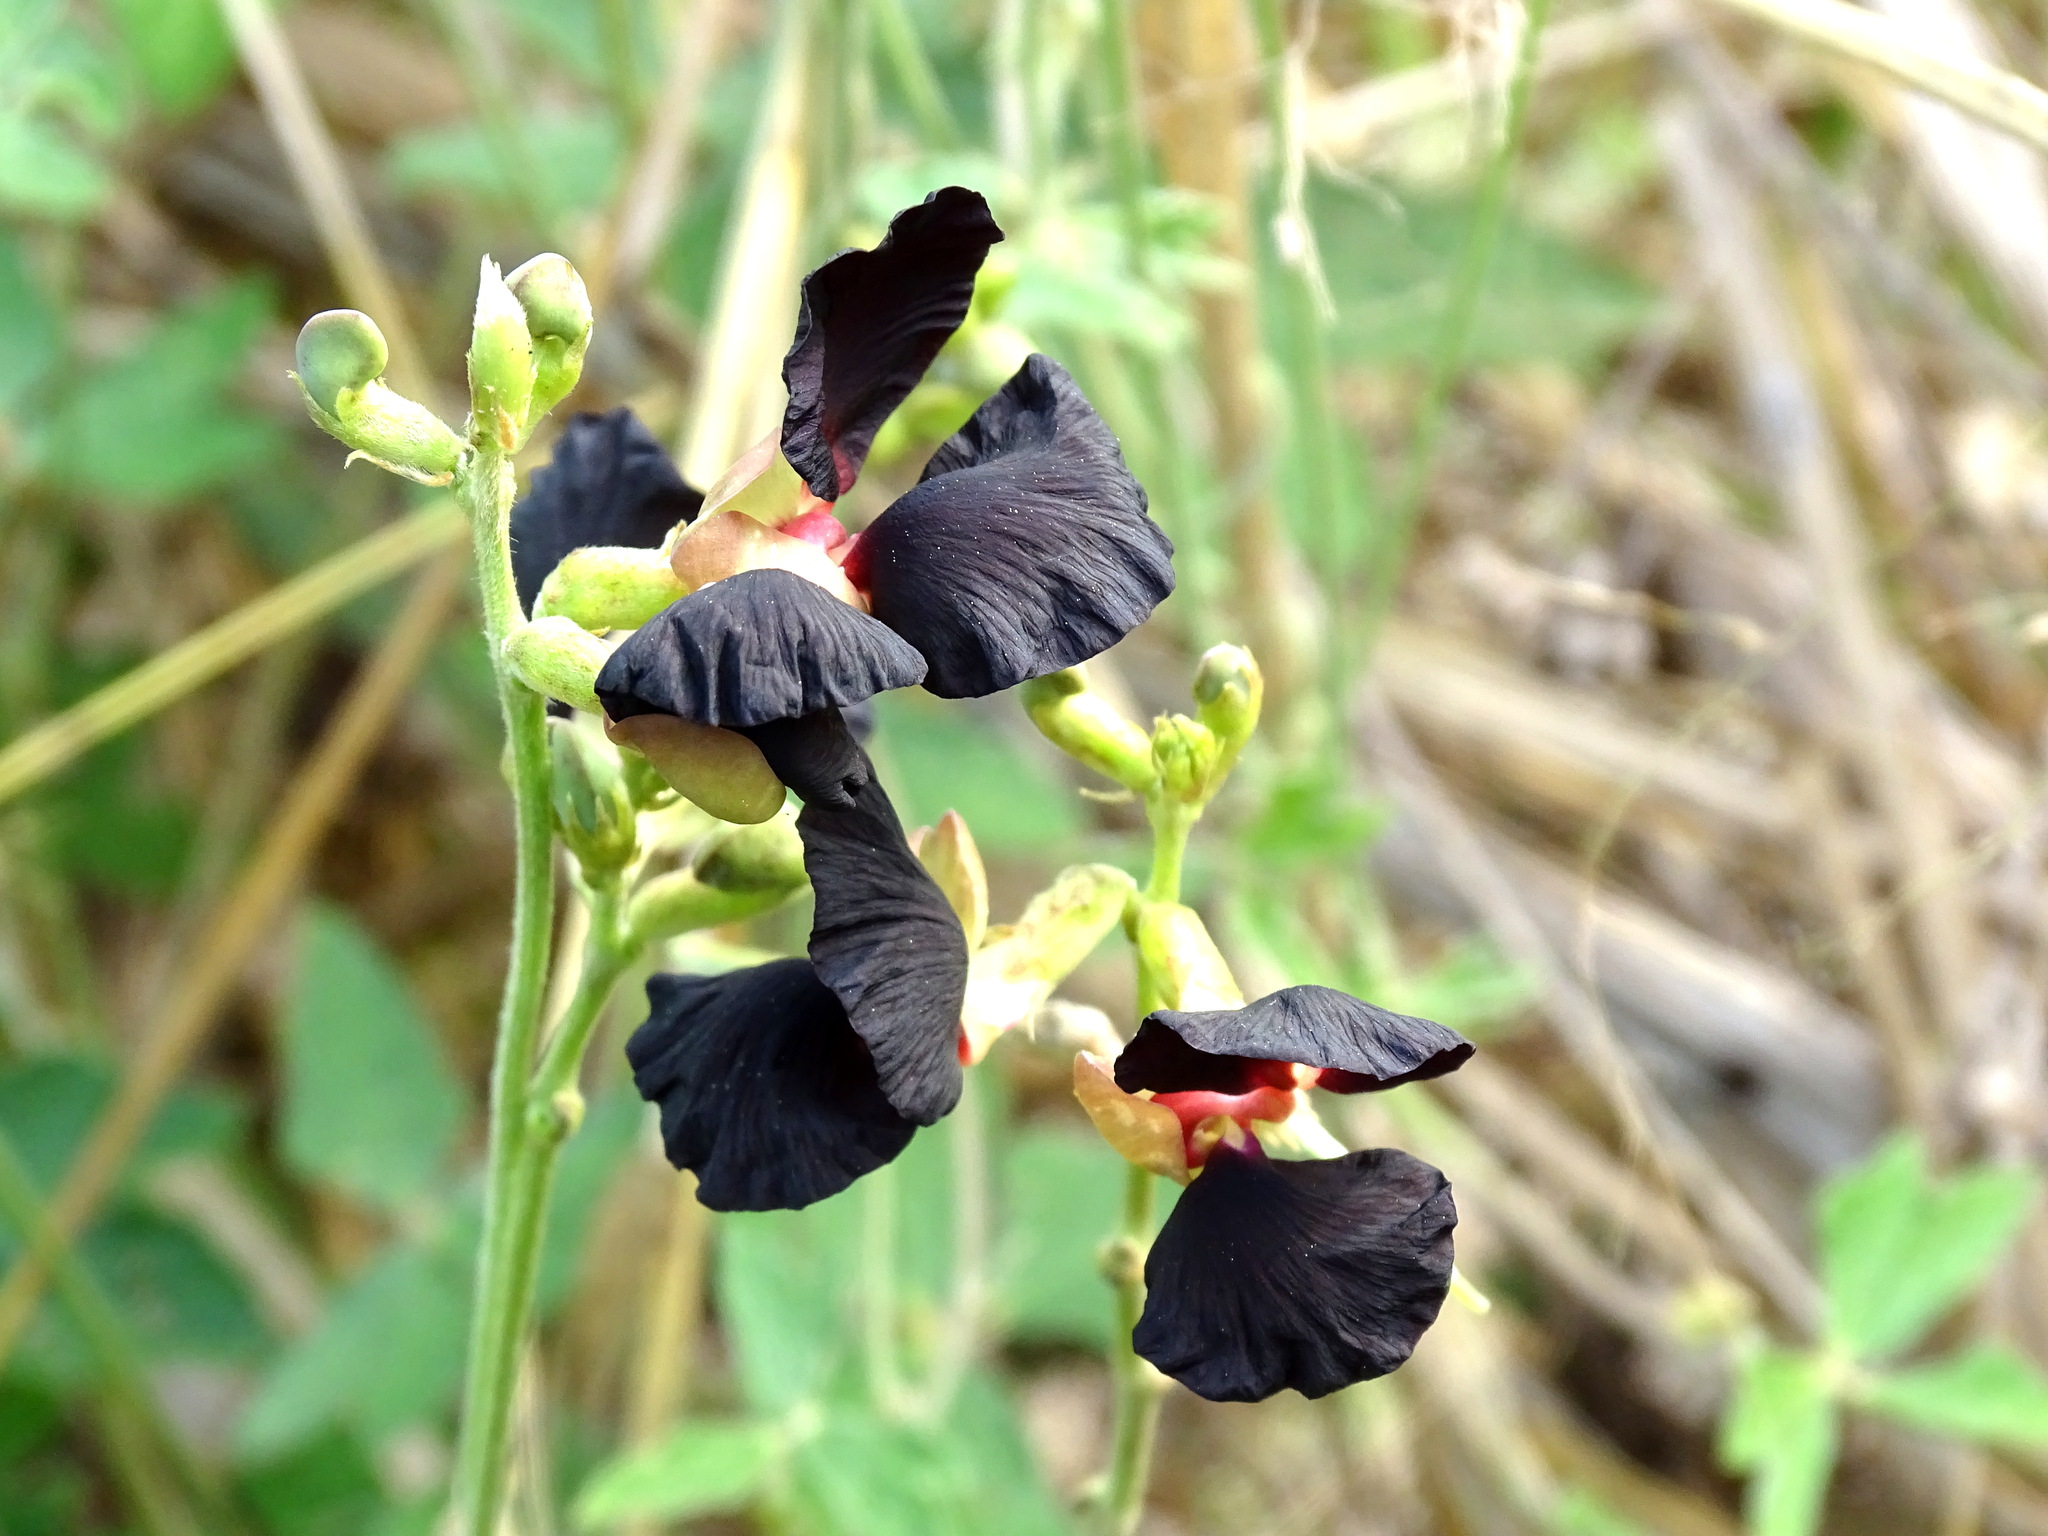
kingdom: Plantae
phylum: Tracheophyta
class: Magnoliopsida
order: Fabales
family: Fabaceae
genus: Macroptilium
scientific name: Macroptilium atropurpureum
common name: Purple bushbean
